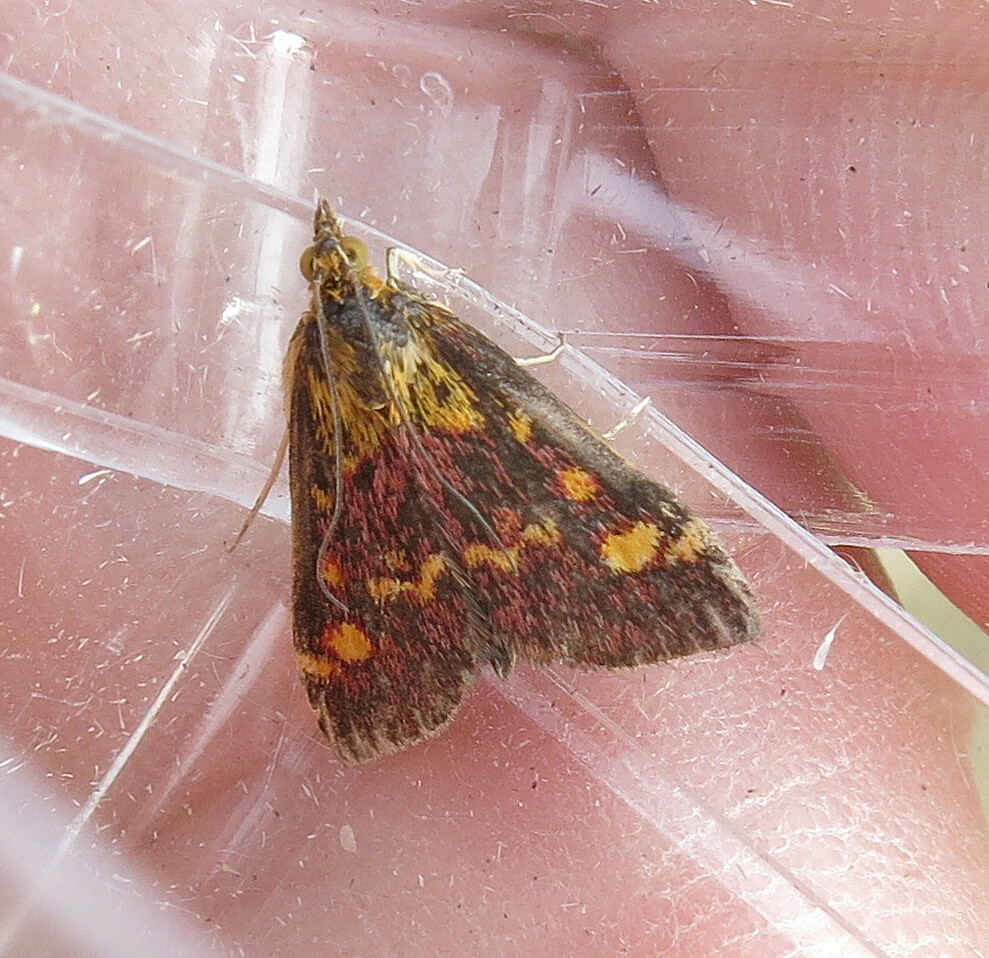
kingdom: Animalia
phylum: Arthropoda
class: Insecta
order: Lepidoptera
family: Crambidae
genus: Pyrausta
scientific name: Pyrausta aurata
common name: Small purple & gold
